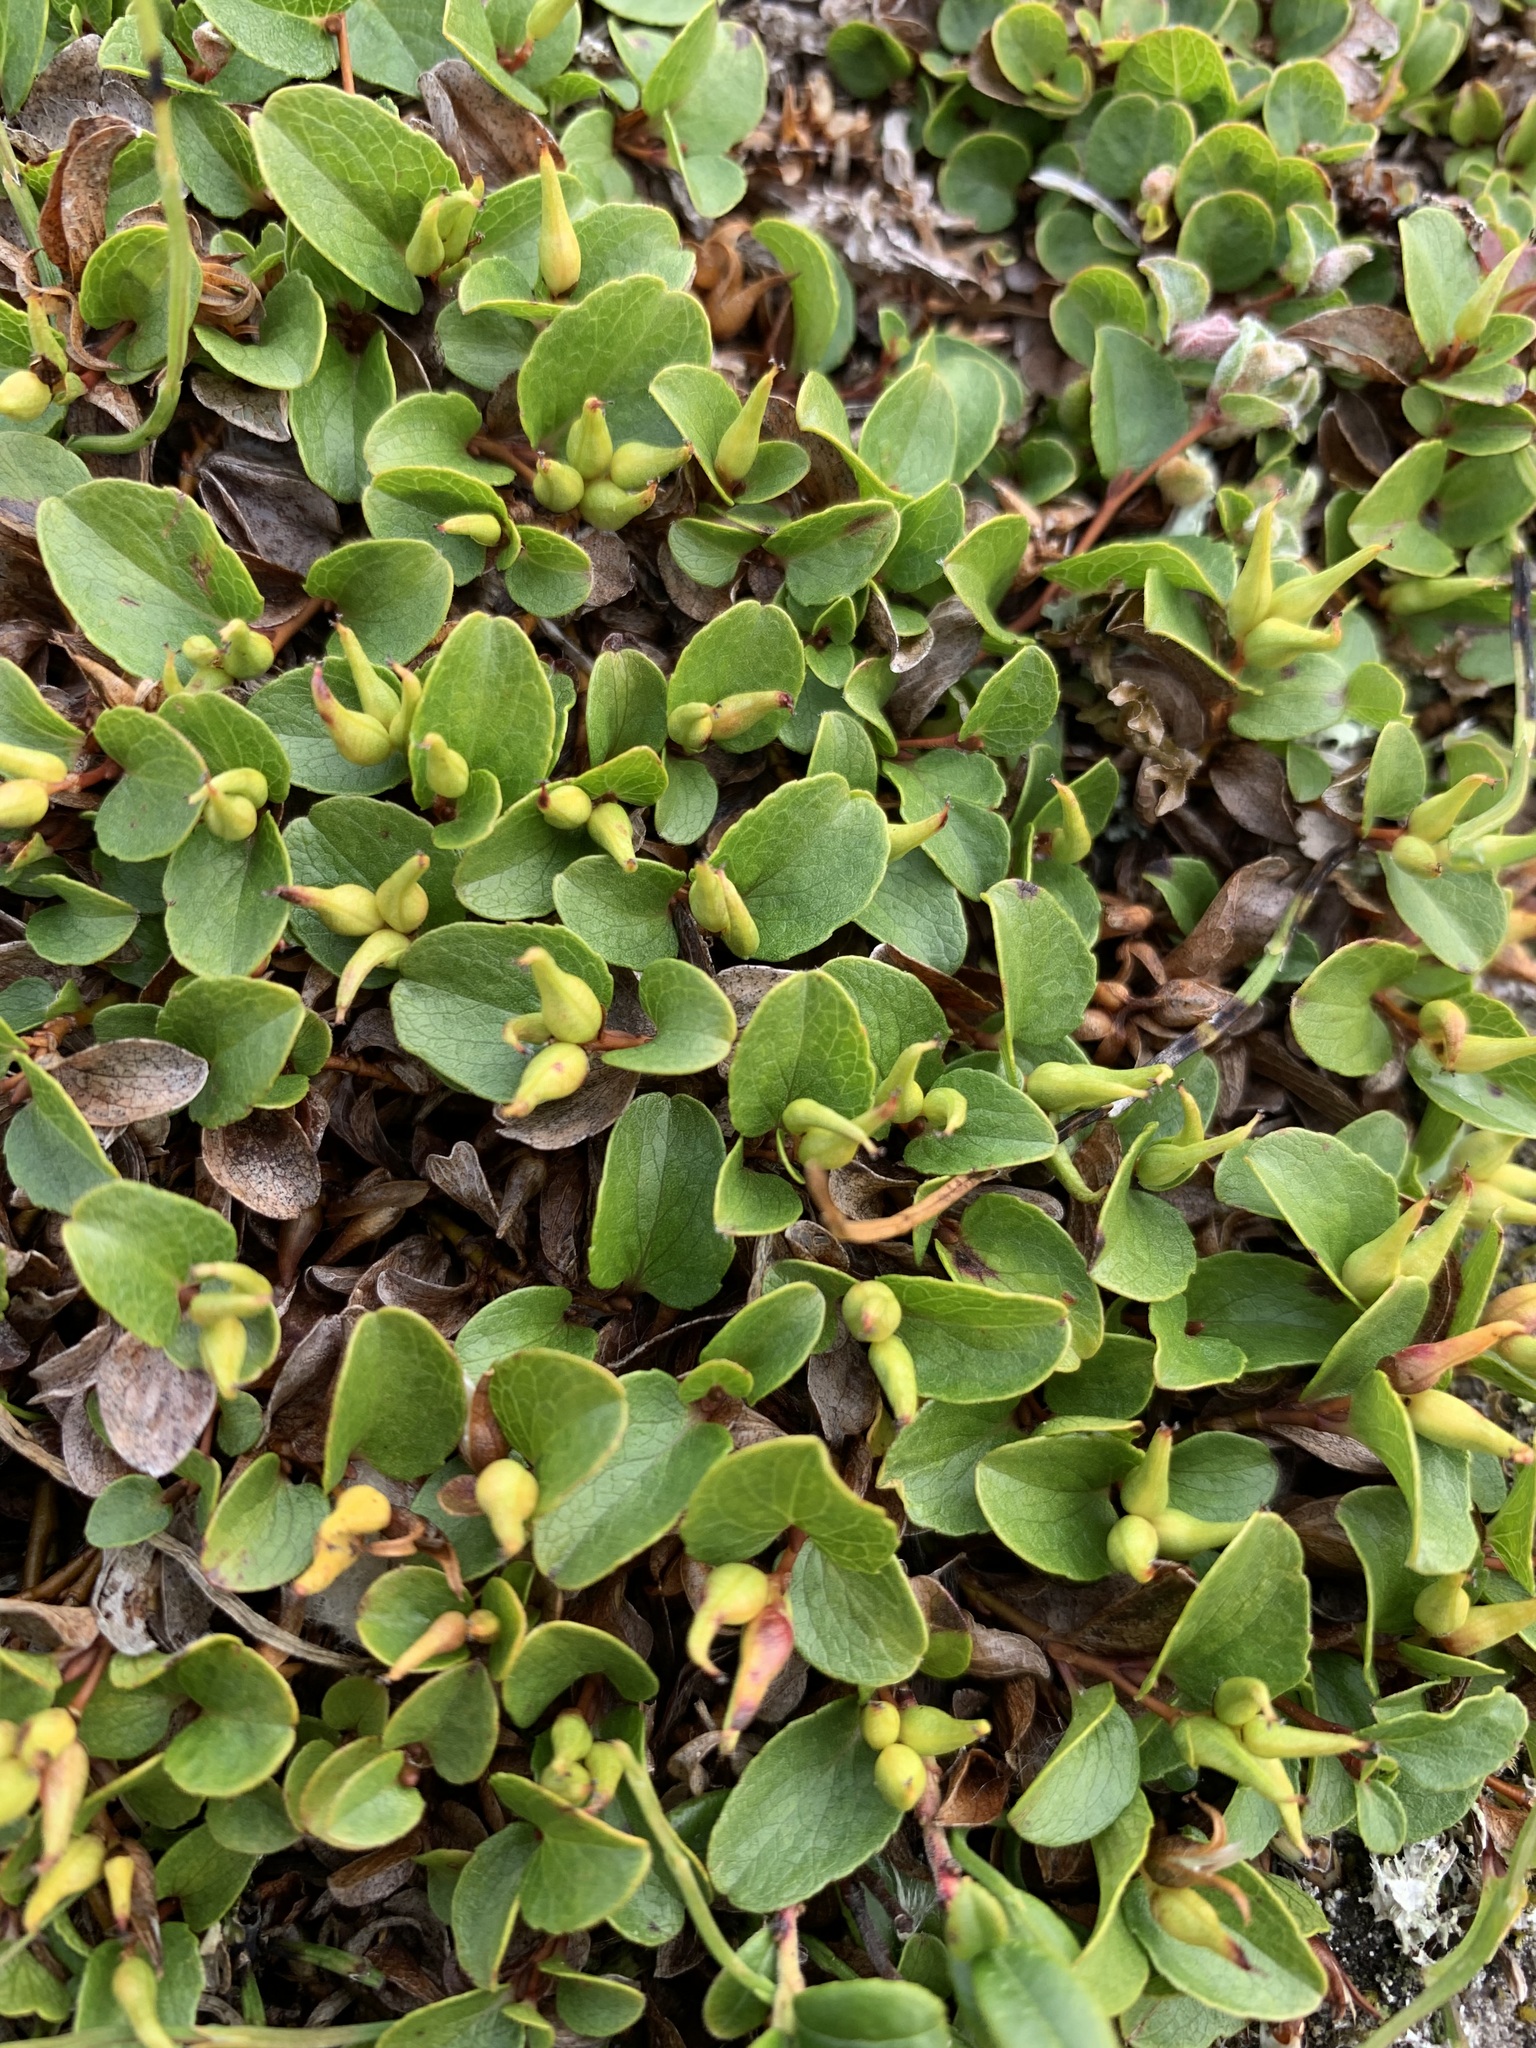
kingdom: Plantae
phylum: Tracheophyta
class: Magnoliopsida
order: Malpighiales
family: Salicaceae
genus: Salix
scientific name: Salix nummularia
